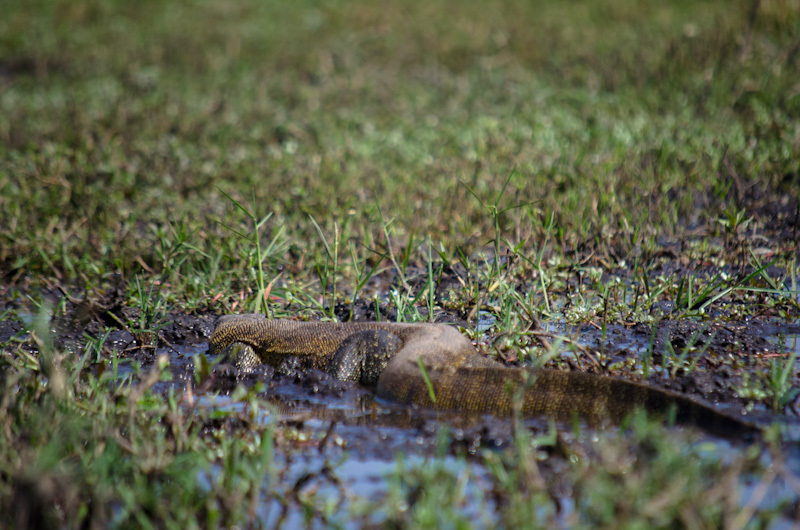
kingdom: Animalia
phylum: Chordata
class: Squamata
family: Varanidae
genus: Varanus
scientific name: Varanus niloticus
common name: Nile monitor
